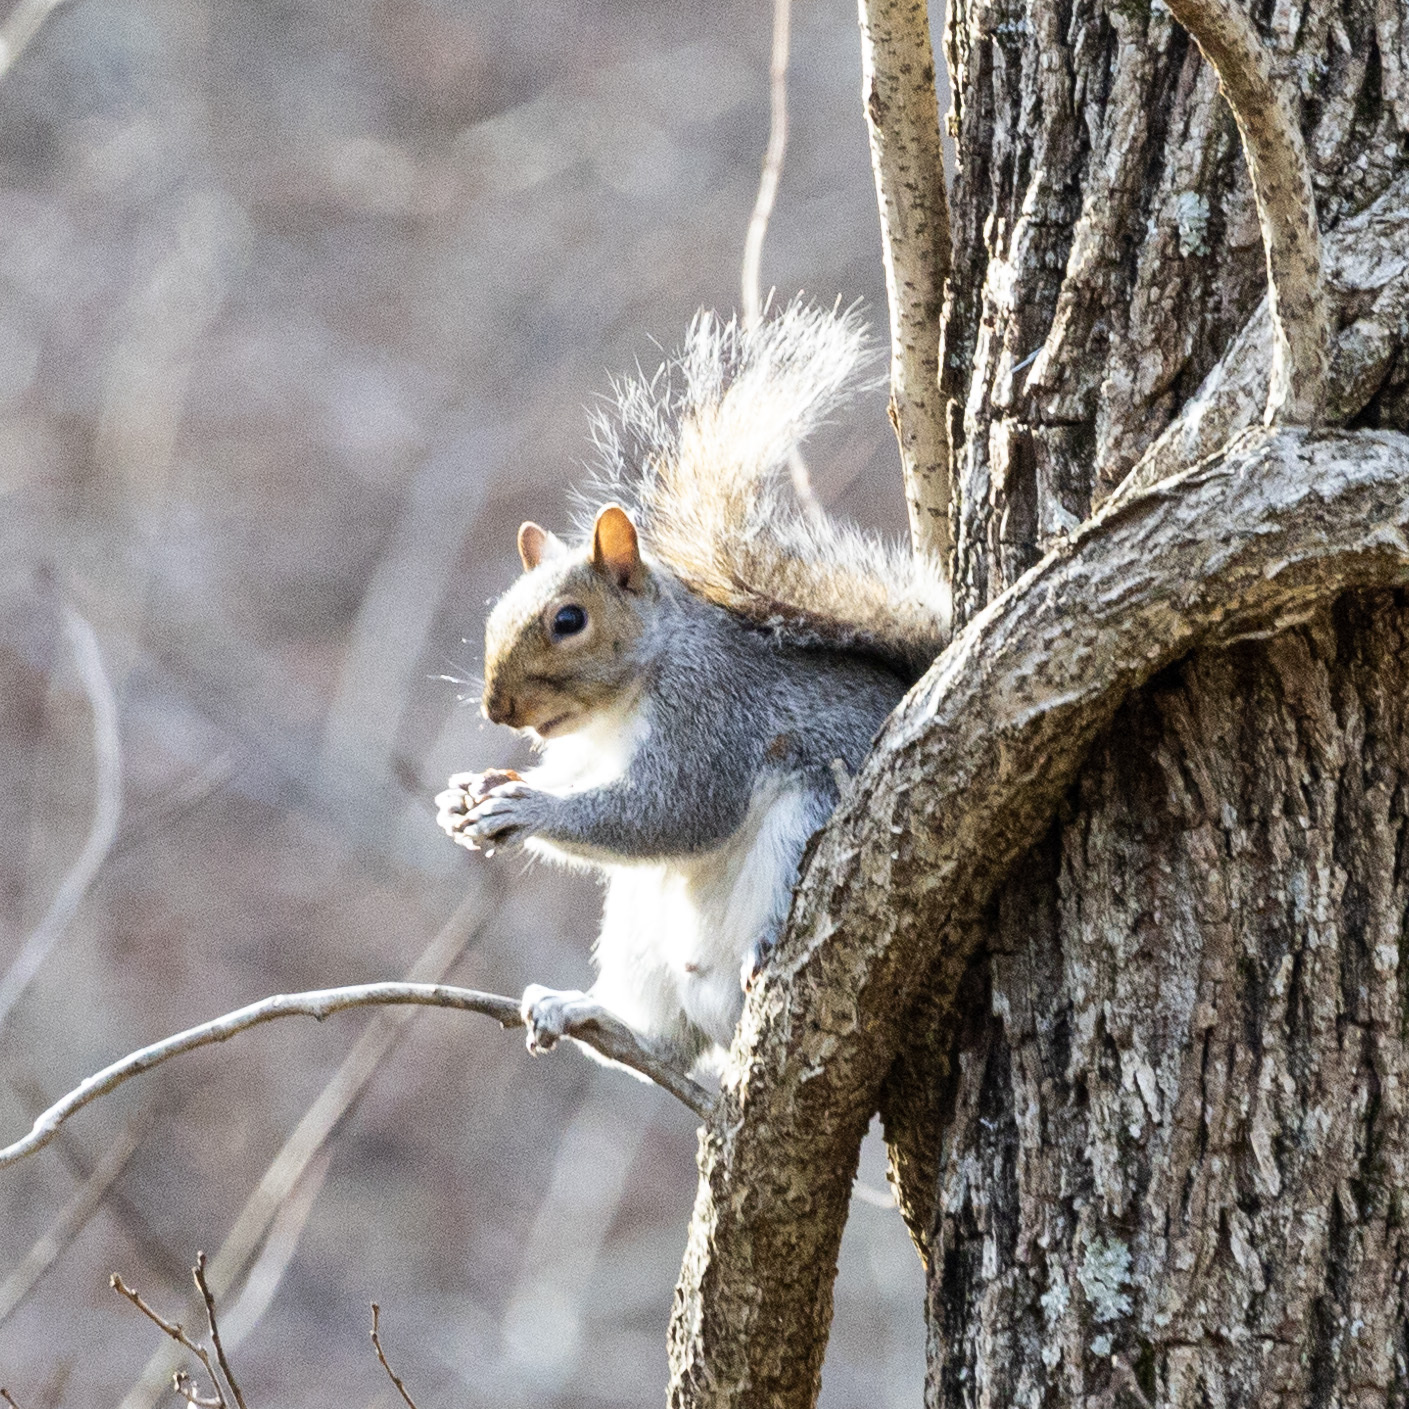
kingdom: Animalia
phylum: Chordata
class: Mammalia
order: Rodentia
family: Sciuridae
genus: Sciurus
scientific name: Sciurus carolinensis
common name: Eastern gray squirrel
